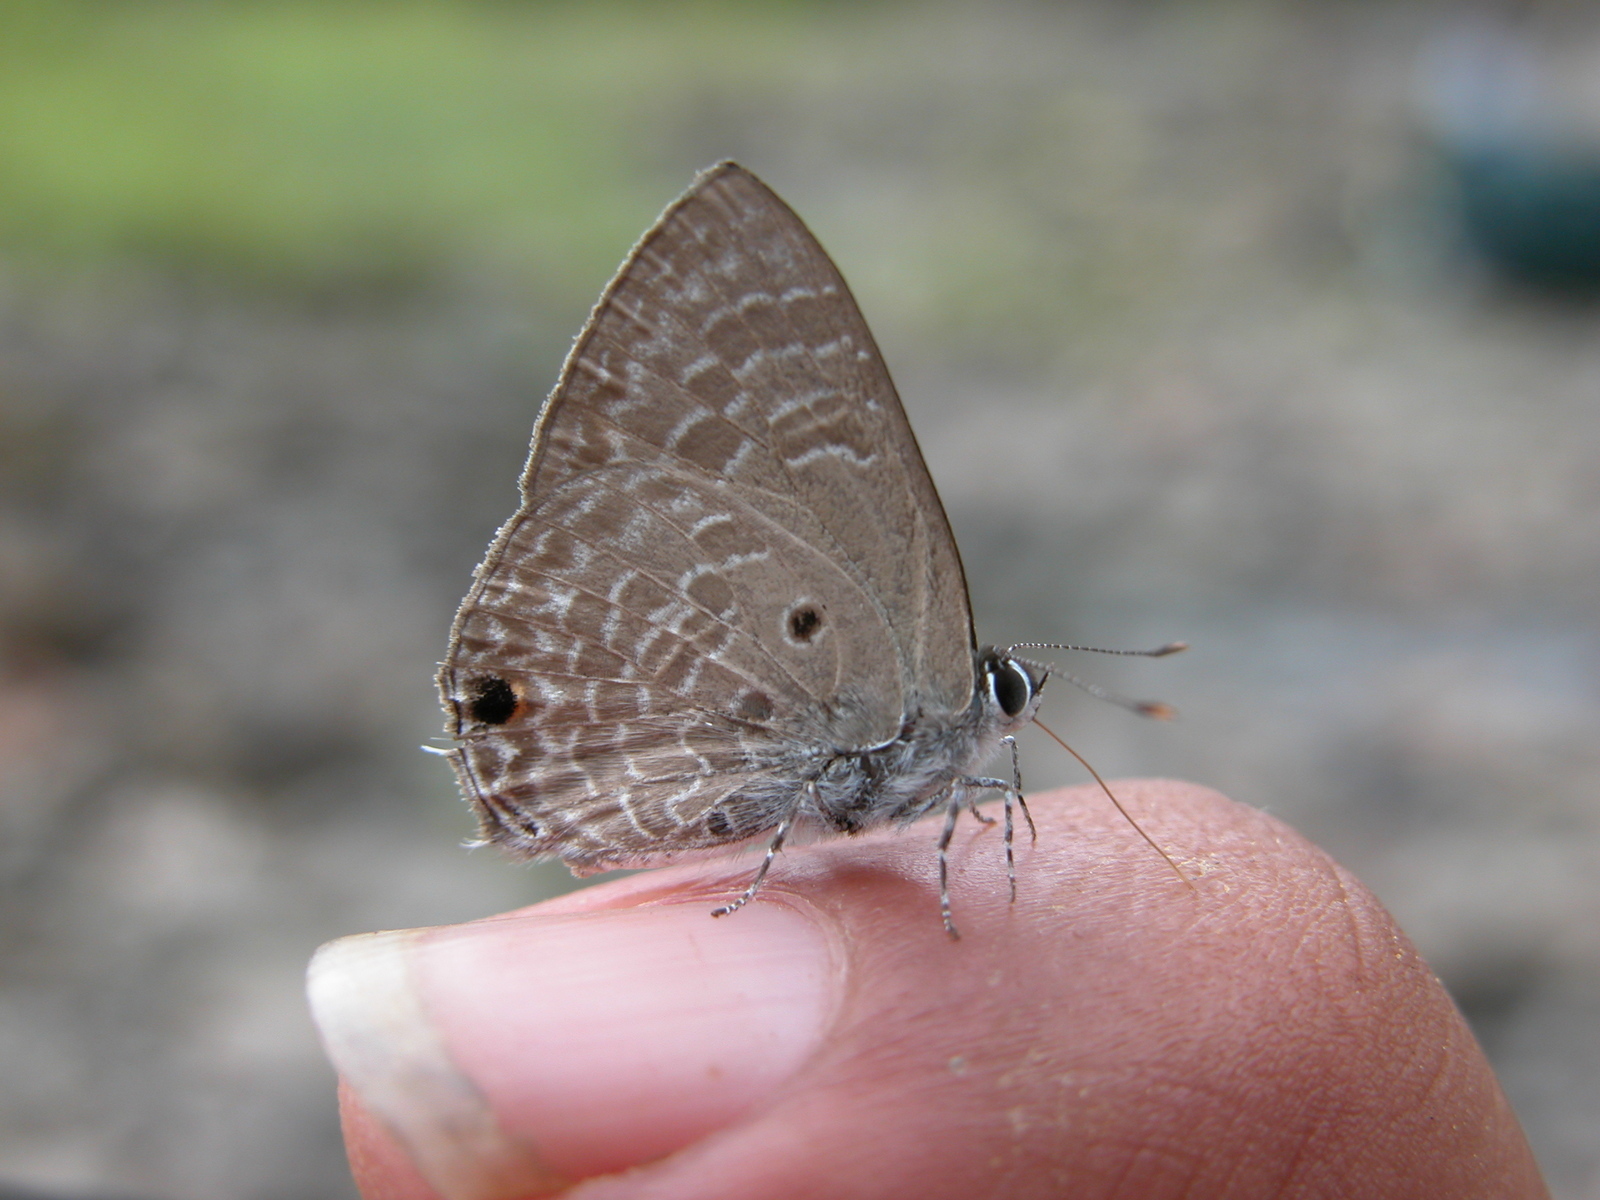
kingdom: Animalia
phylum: Arthropoda
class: Insecta
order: Lepidoptera
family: Lycaenidae
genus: Anthene
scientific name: Anthene lycaenina
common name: Pointed ciliate blue
